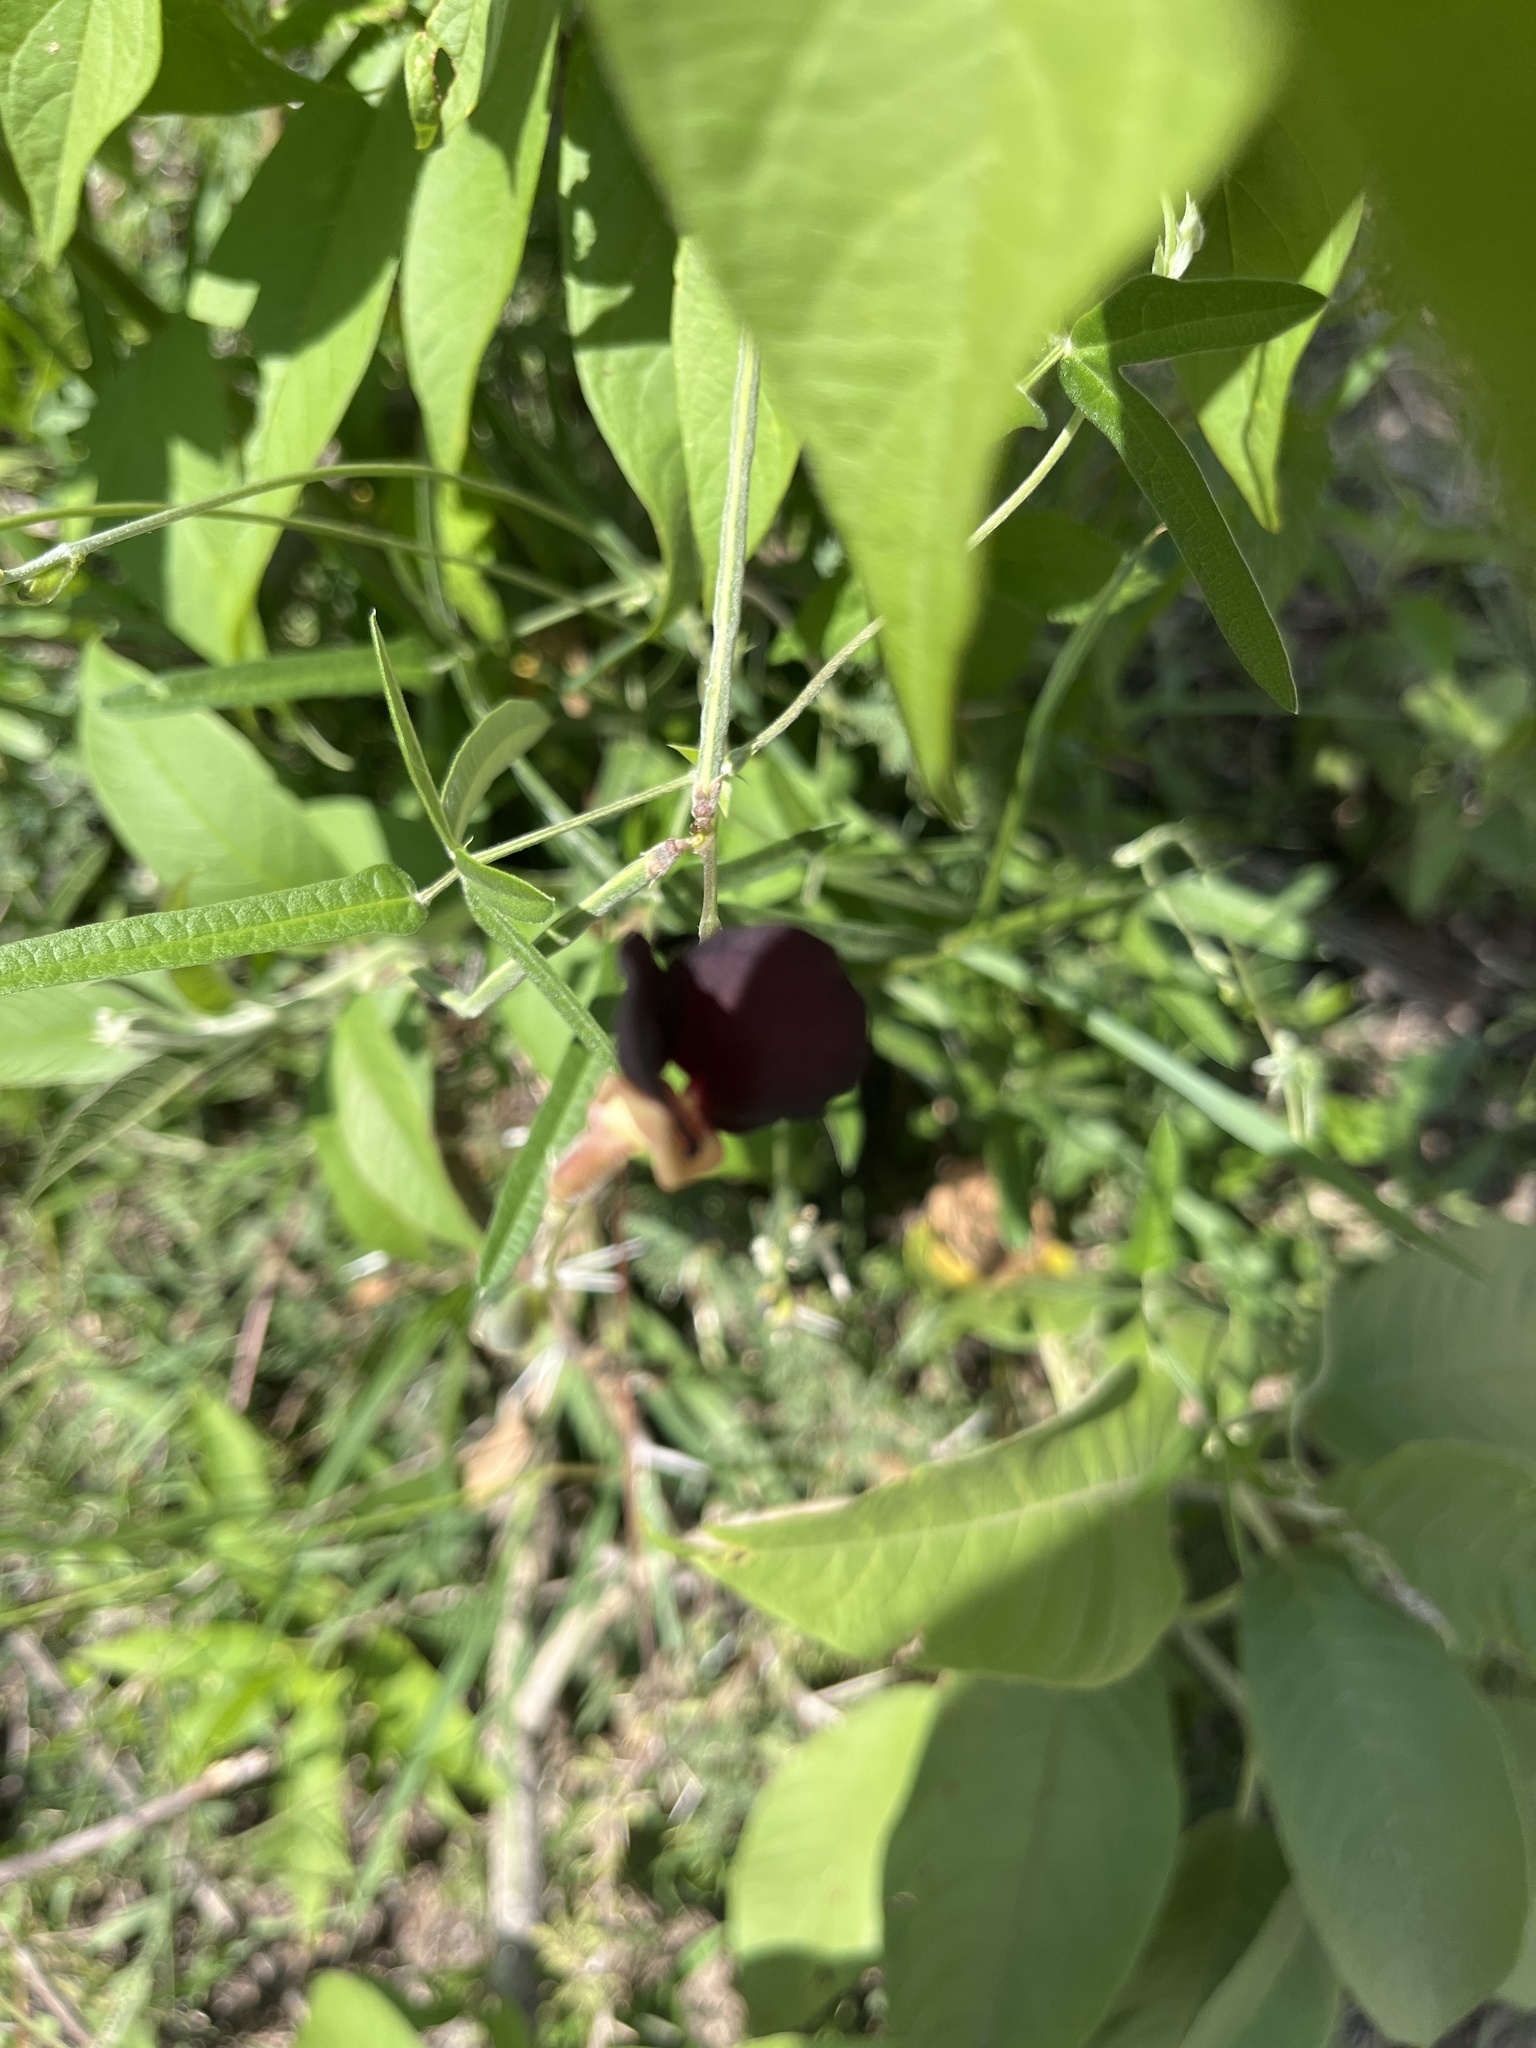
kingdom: Plantae
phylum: Tracheophyta
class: Magnoliopsida
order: Fabales
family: Fabaceae
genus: Macroptilium
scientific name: Macroptilium atropurpureum
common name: Purple bushbean
